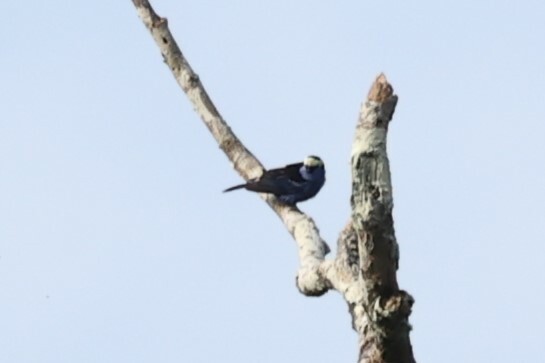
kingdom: Animalia
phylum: Chordata
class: Aves
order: Passeriformes
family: Thraupidae
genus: Tangara
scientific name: Tangara callophrys
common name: Opal-crowned tanager
